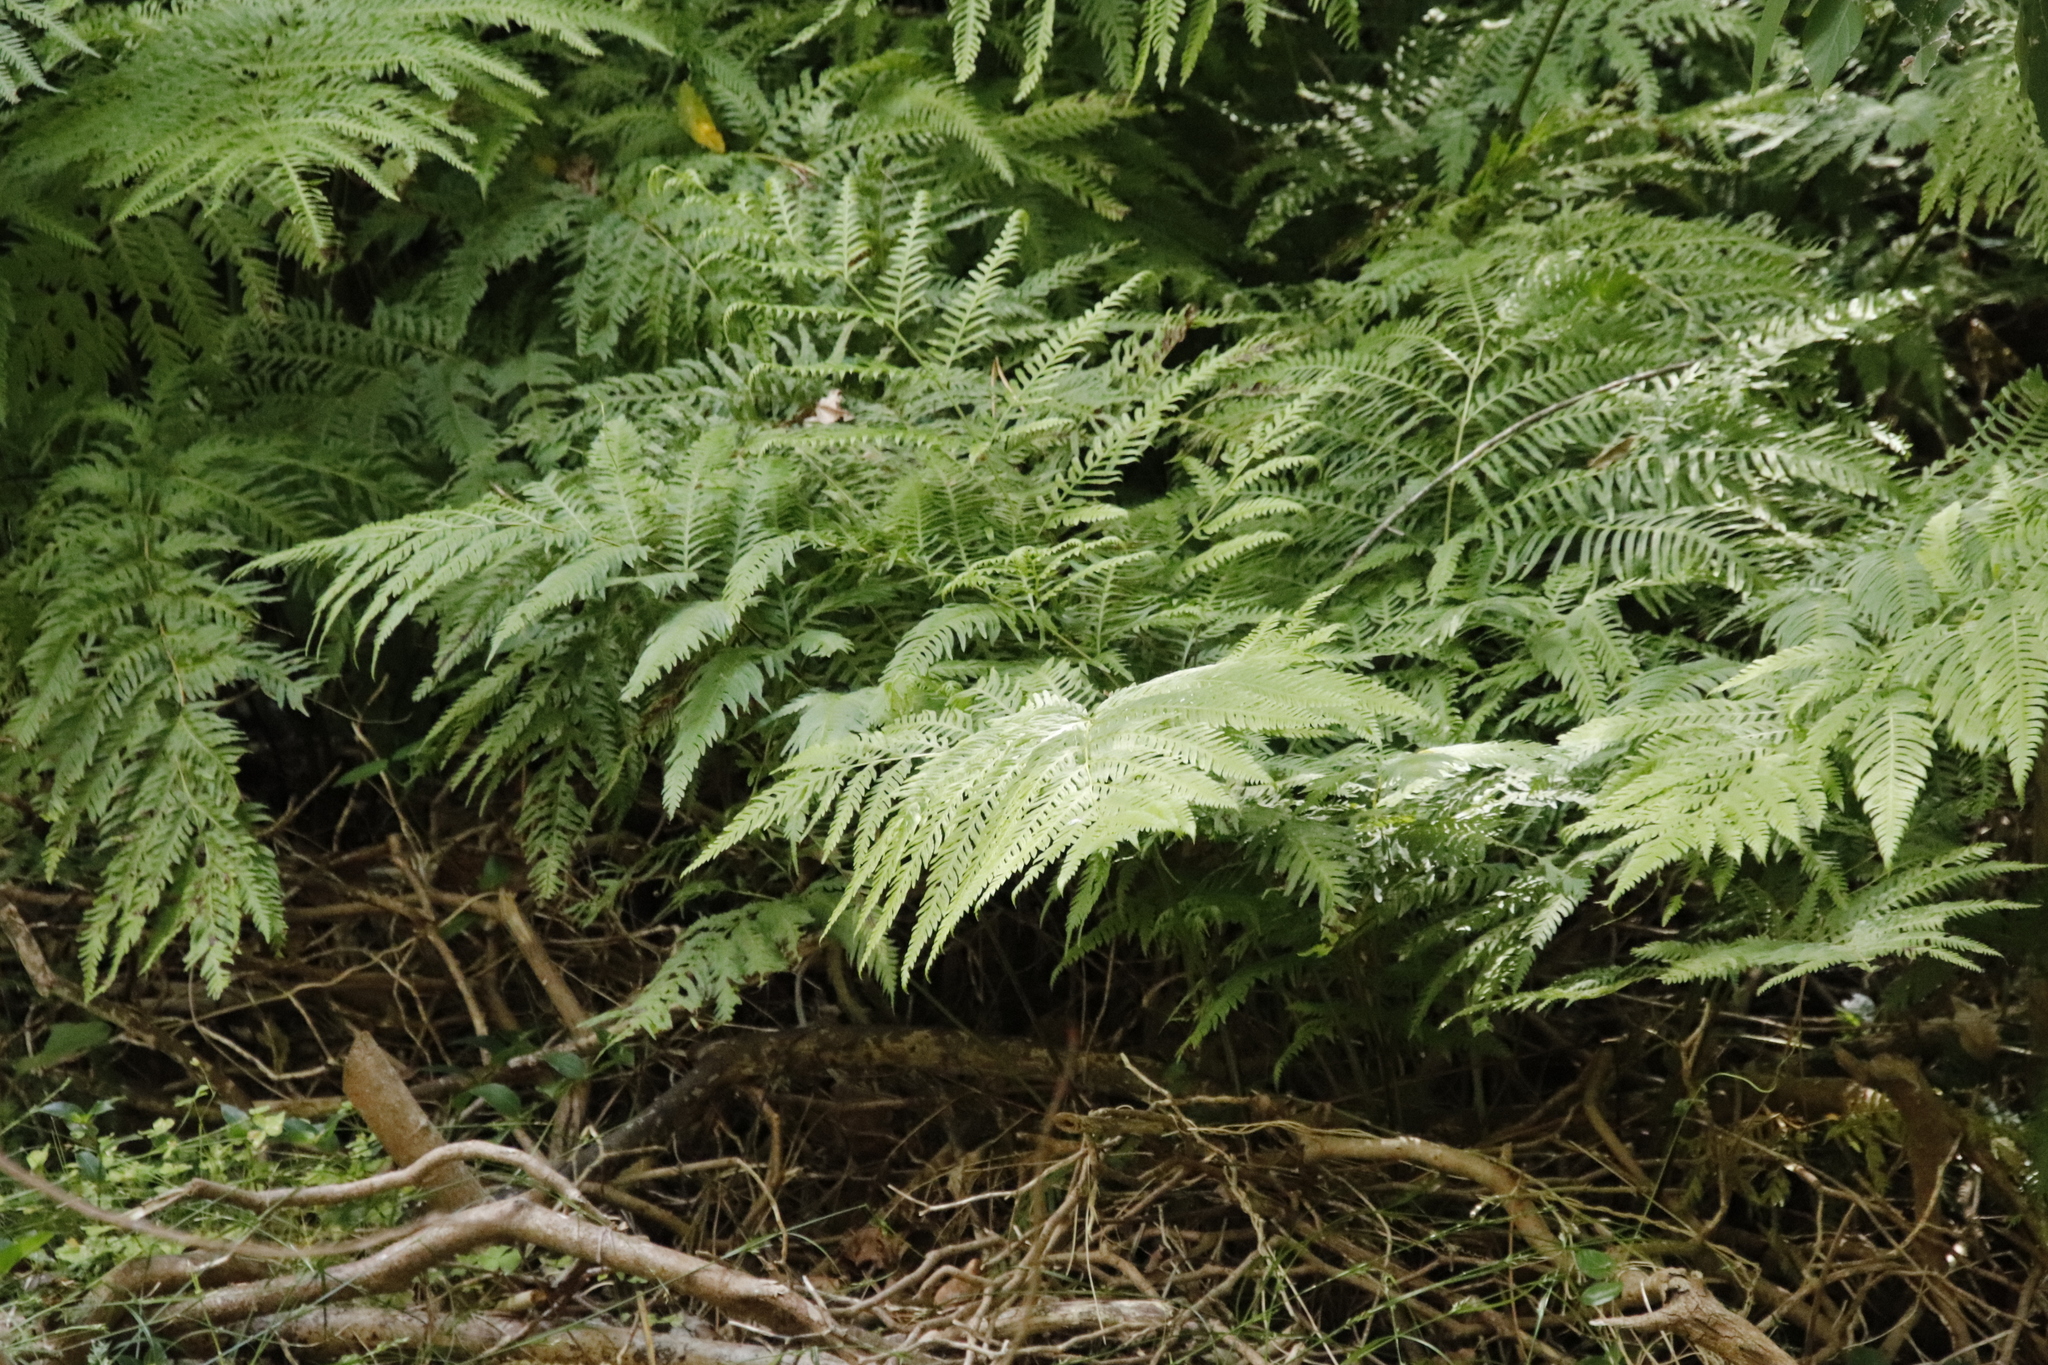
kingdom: Plantae
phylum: Tracheophyta
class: Polypodiopsida
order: Polypodiales
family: Pteridaceae
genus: Pteris
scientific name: Pteris dentata
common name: Toothed brake
